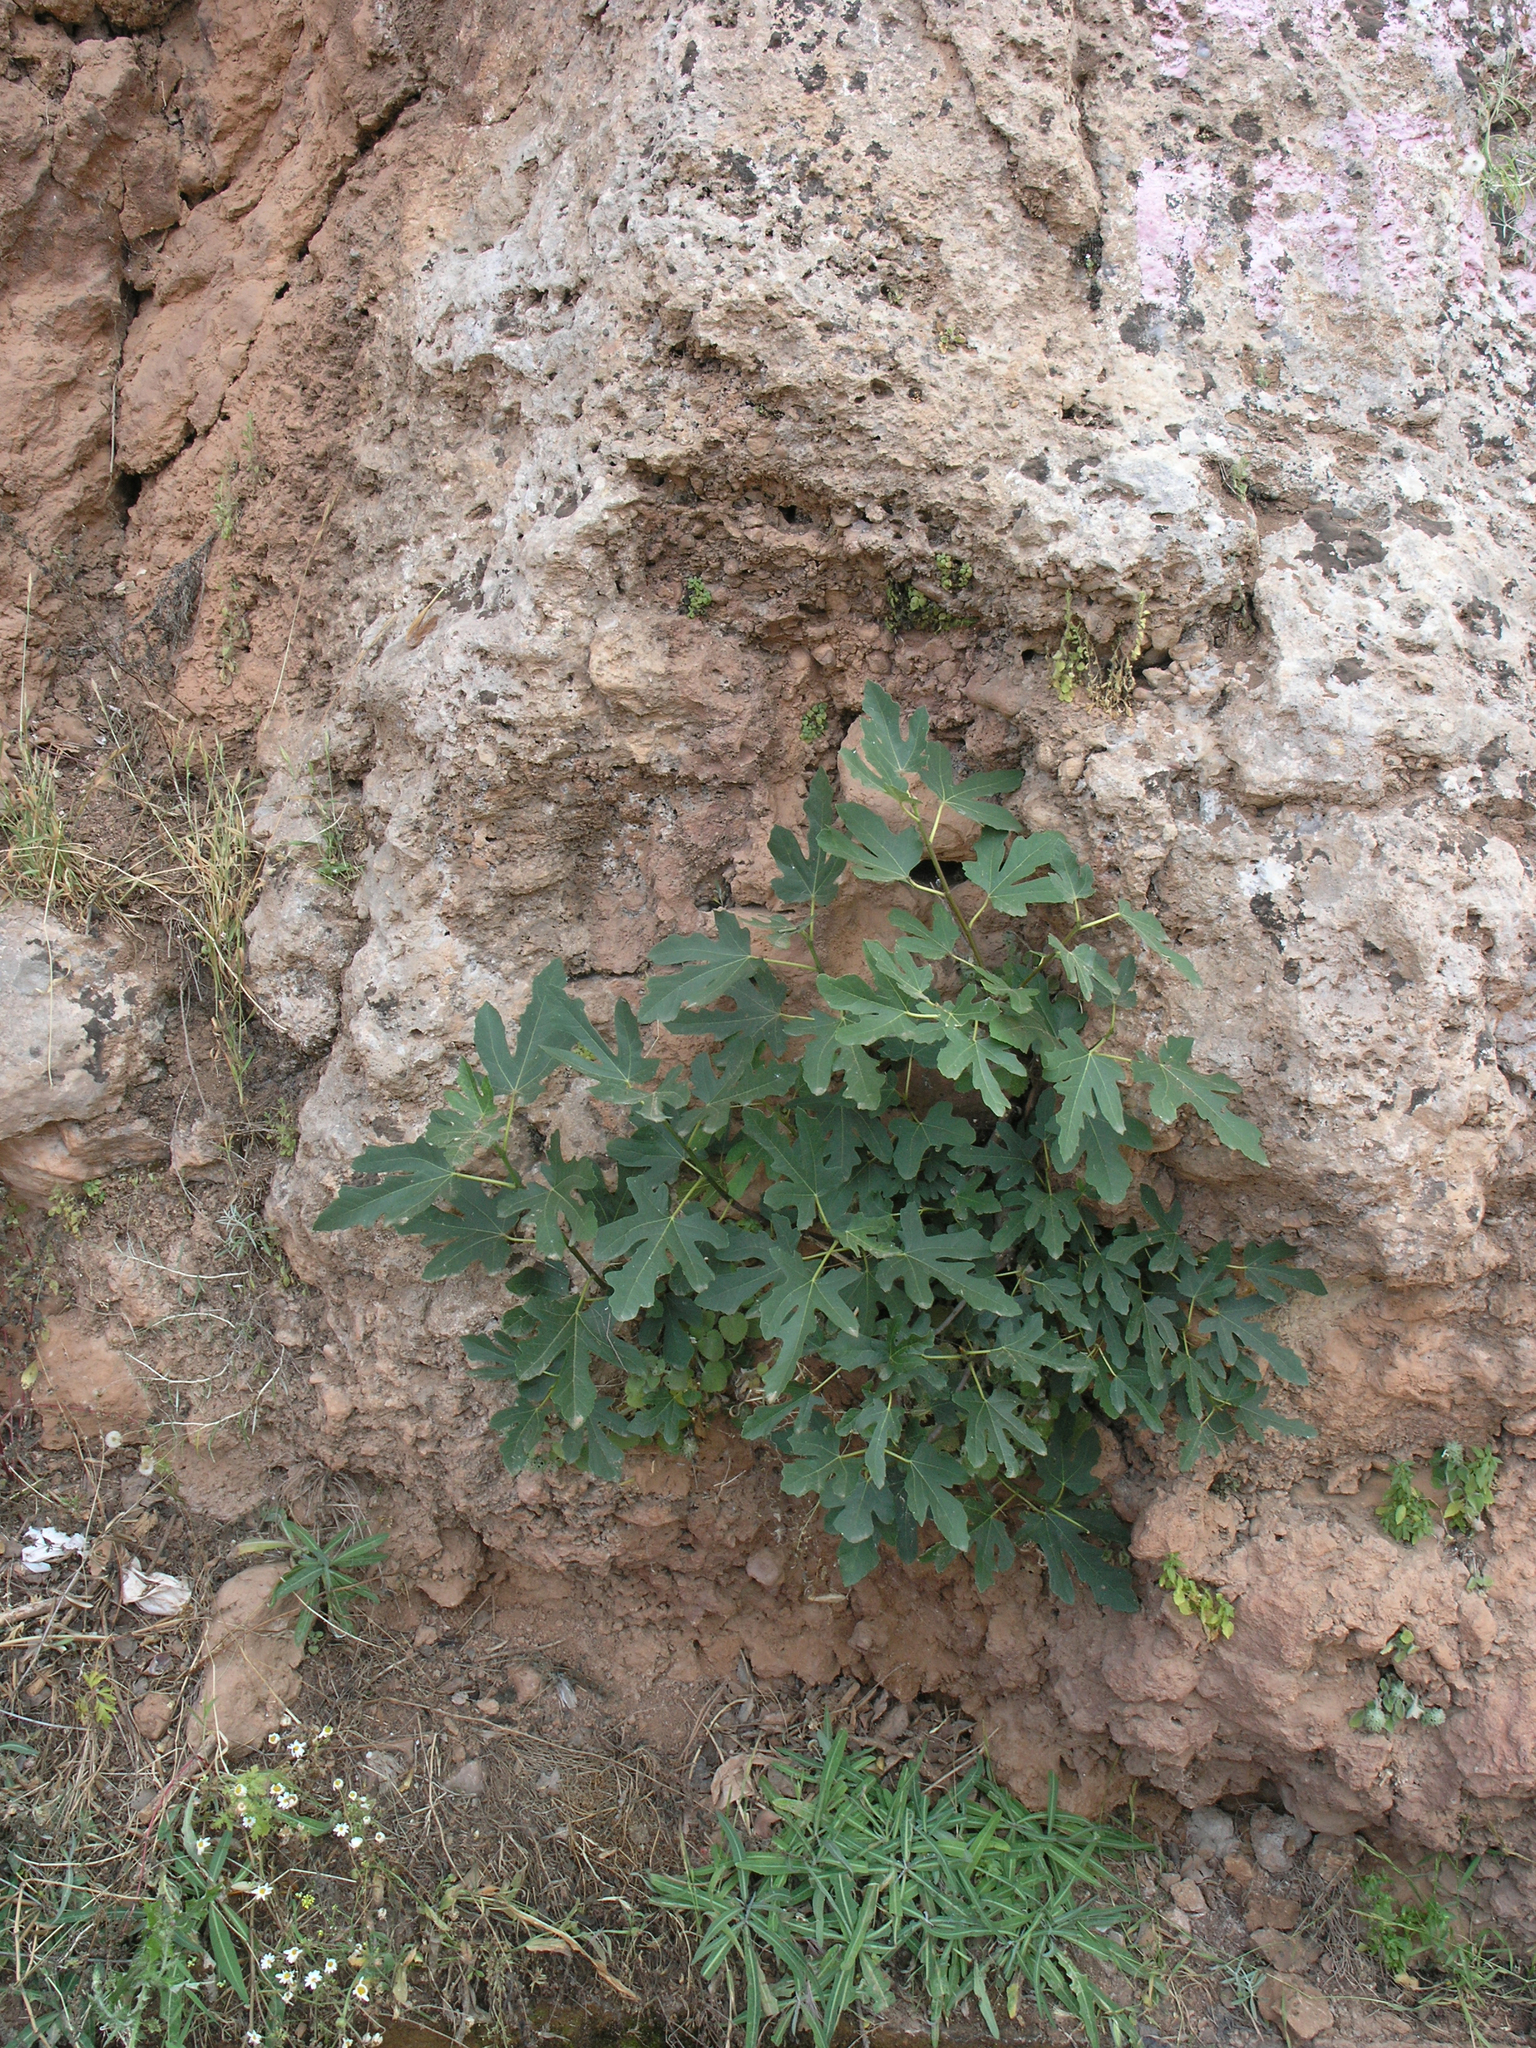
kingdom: Plantae
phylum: Tracheophyta
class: Magnoliopsida
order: Rosales
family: Moraceae
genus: Ficus
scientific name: Ficus carica
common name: Fig
